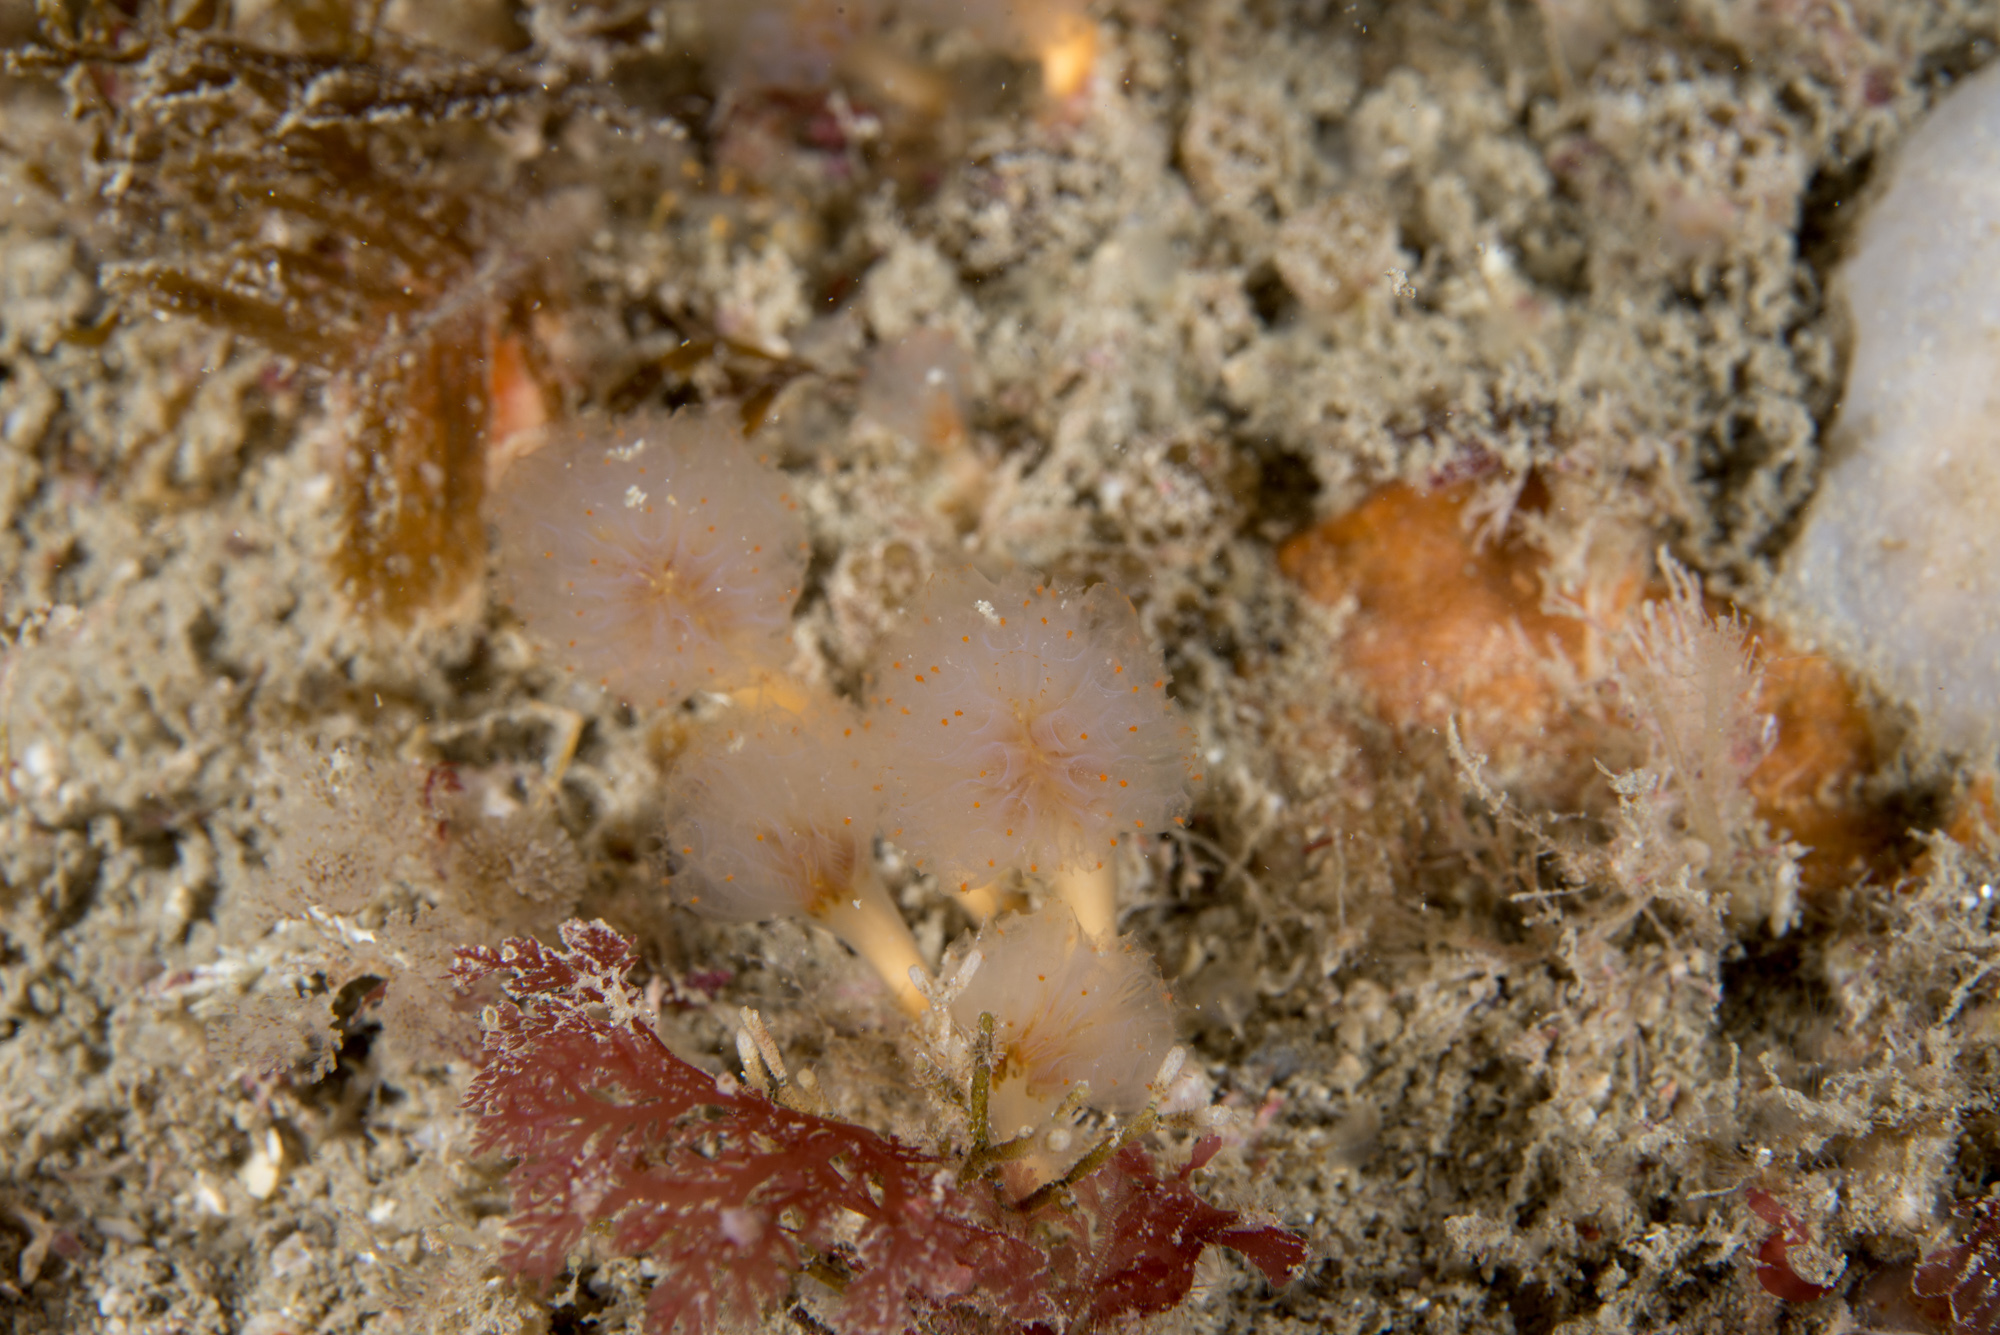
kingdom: Animalia
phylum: Chordata
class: Ascidiacea
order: Aplousobranchia
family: Polyclinidae
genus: Aplidium
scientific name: Aplidium punctum
